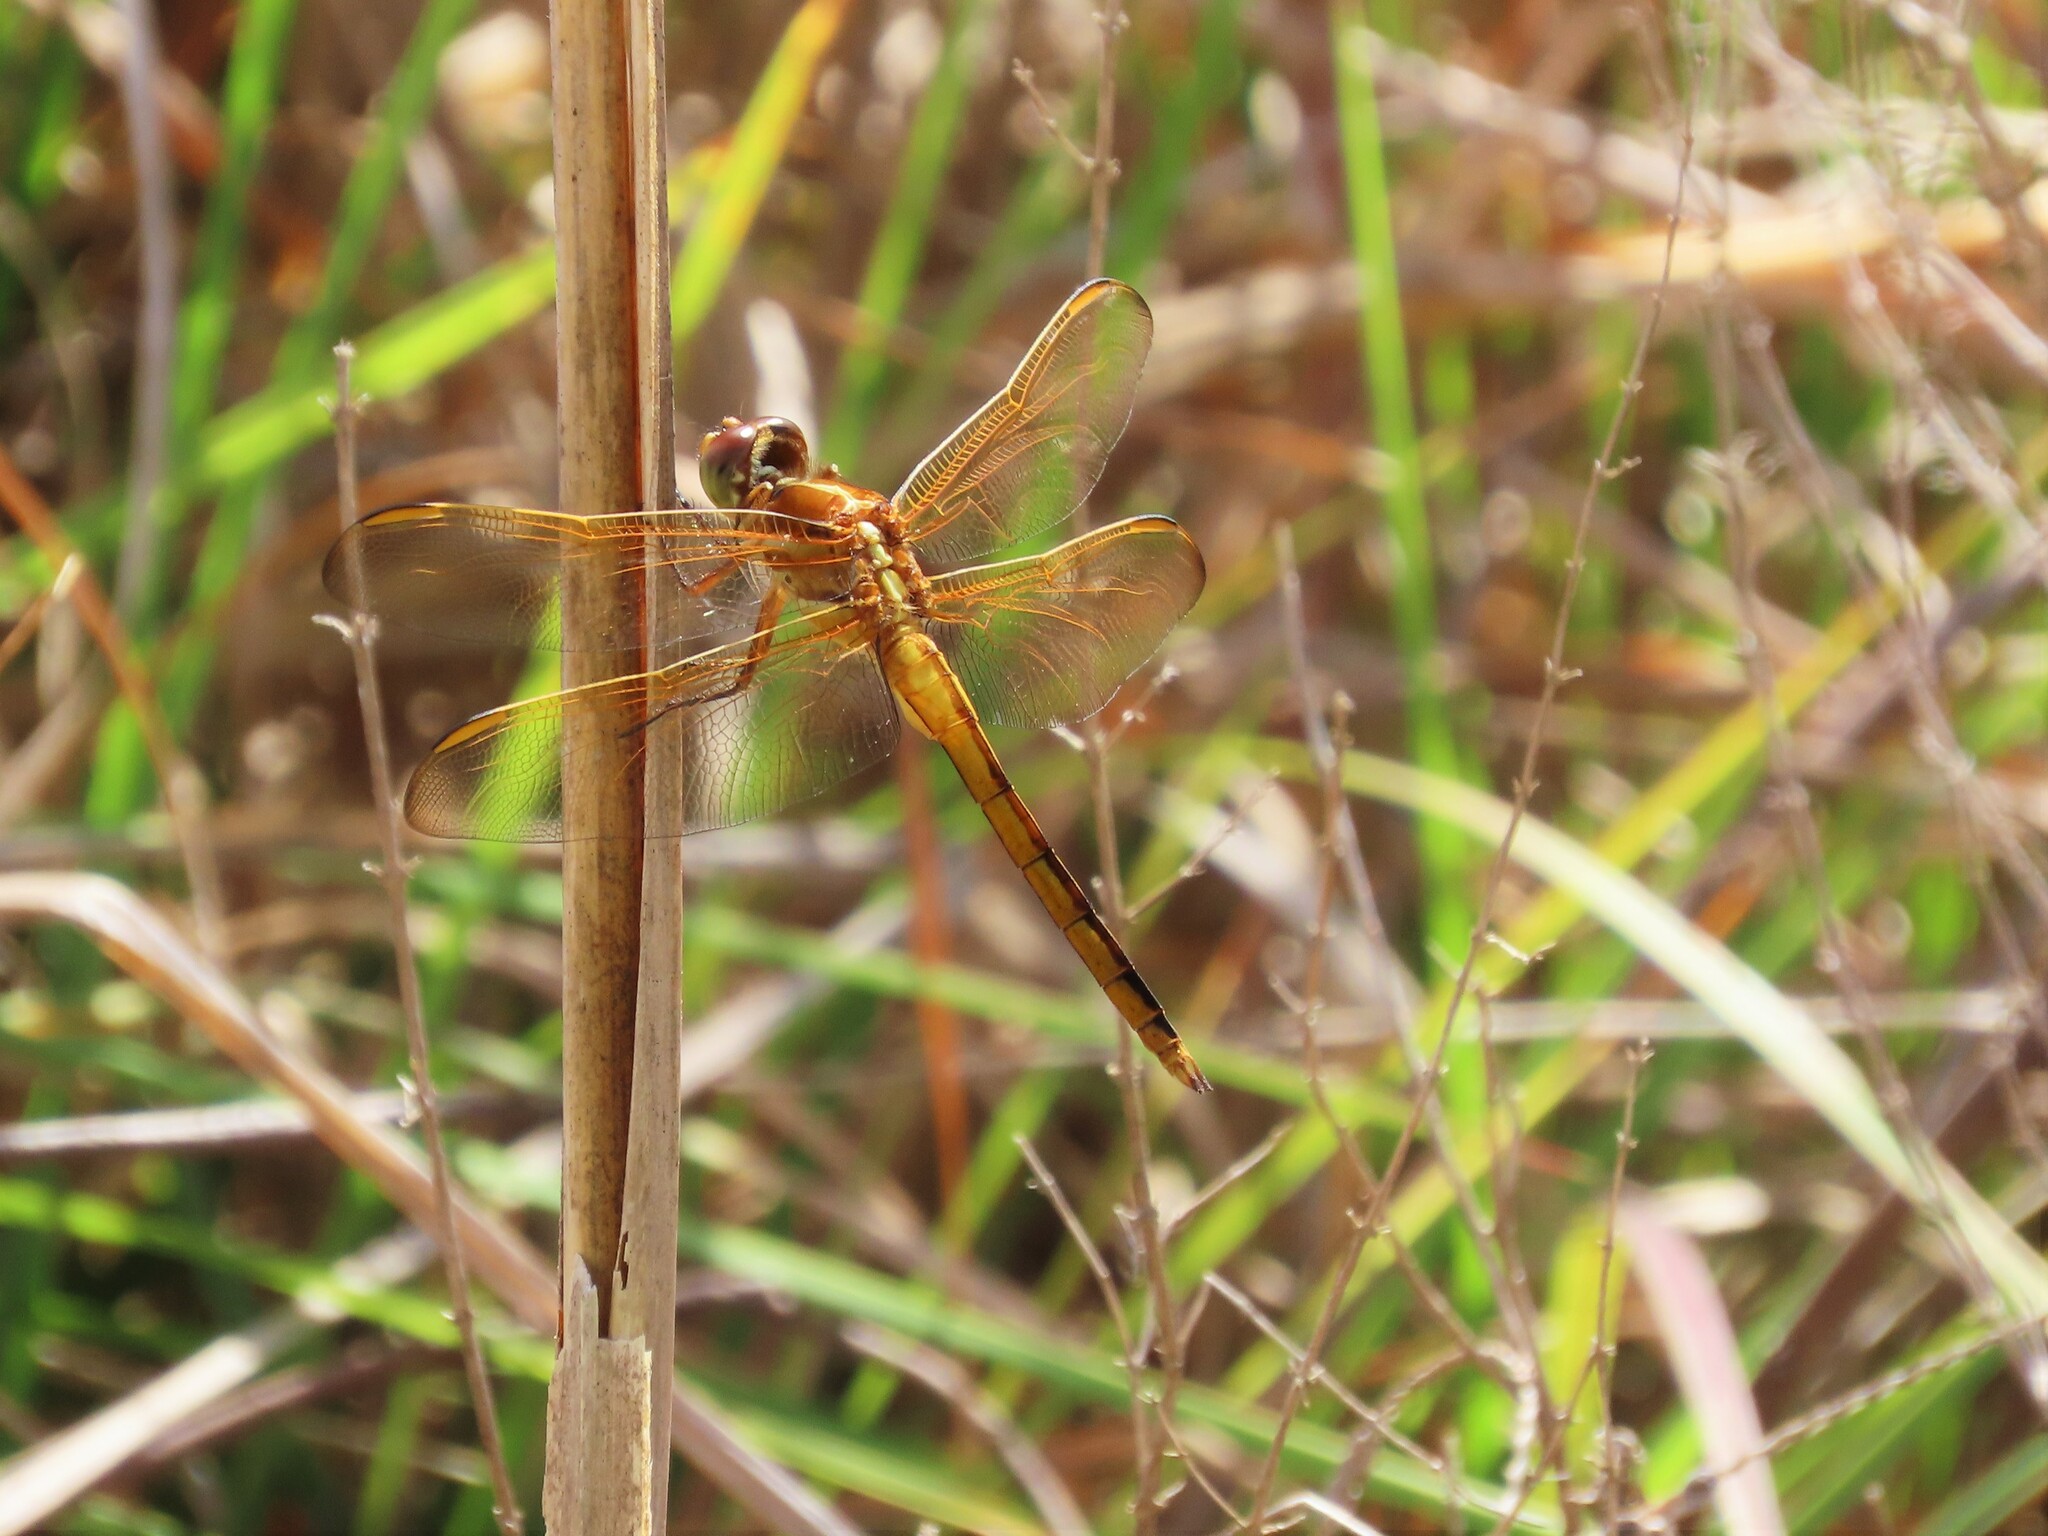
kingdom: Animalia
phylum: Arthropoda
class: Insecta
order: Odonata
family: Libellulidae
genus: Libellula
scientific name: Libellula auripennis
